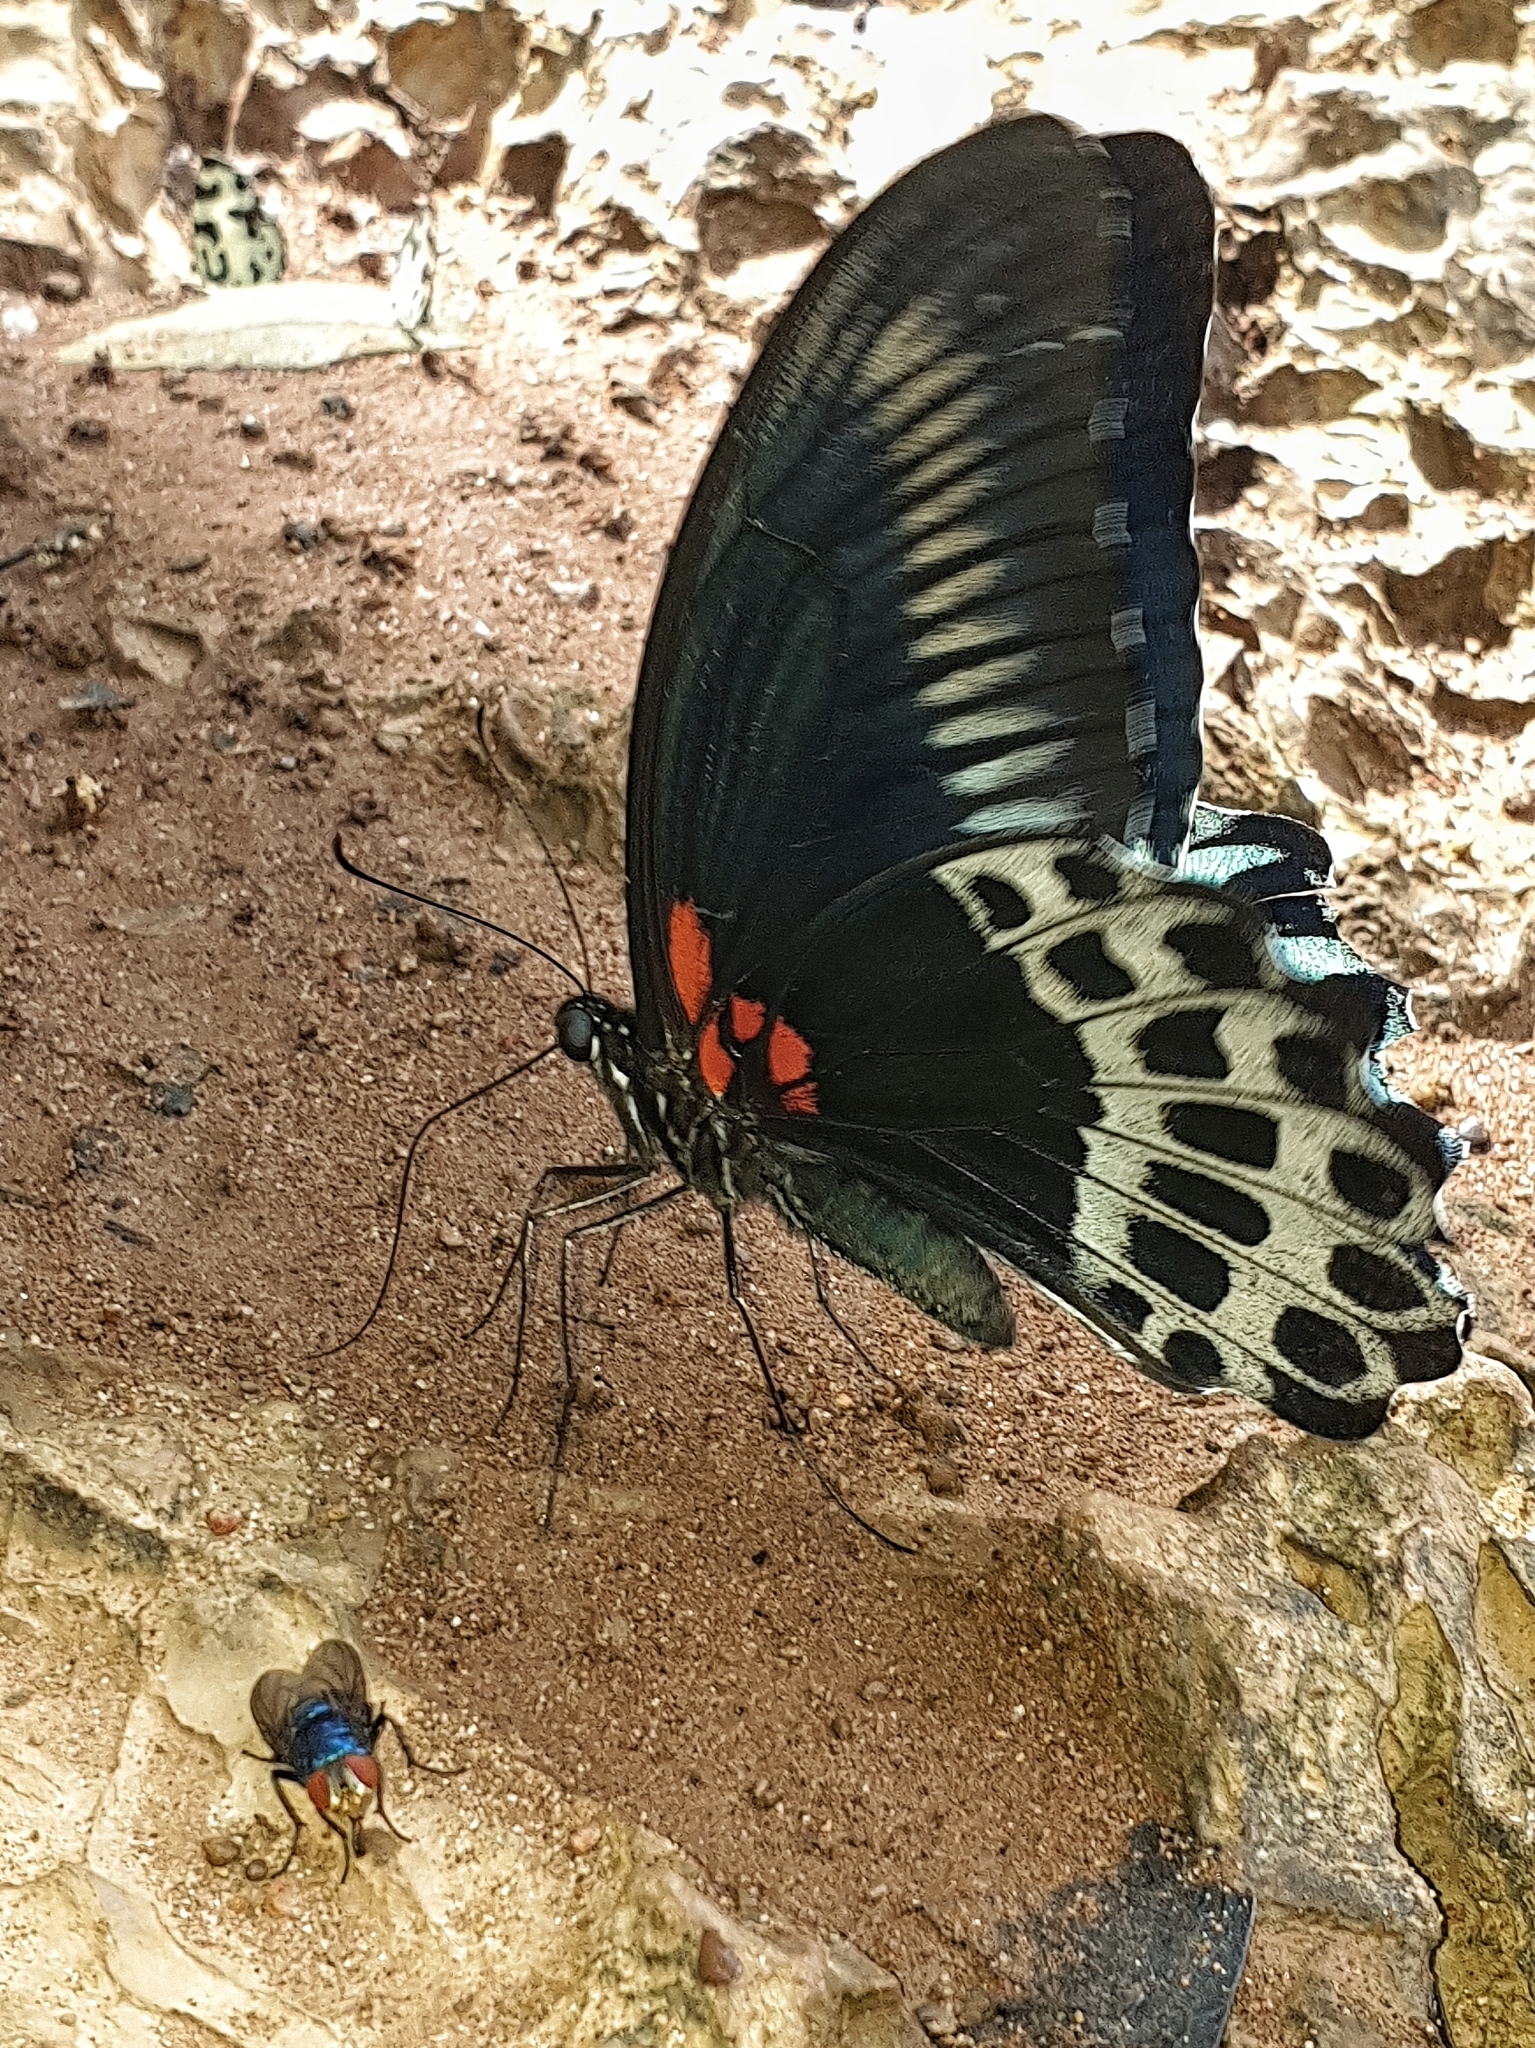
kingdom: Animalia
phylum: Arthropoda
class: Insecta
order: Lepidoptera
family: Papilionidae
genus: Papilio
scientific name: Papilio memnon
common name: Great mormon
